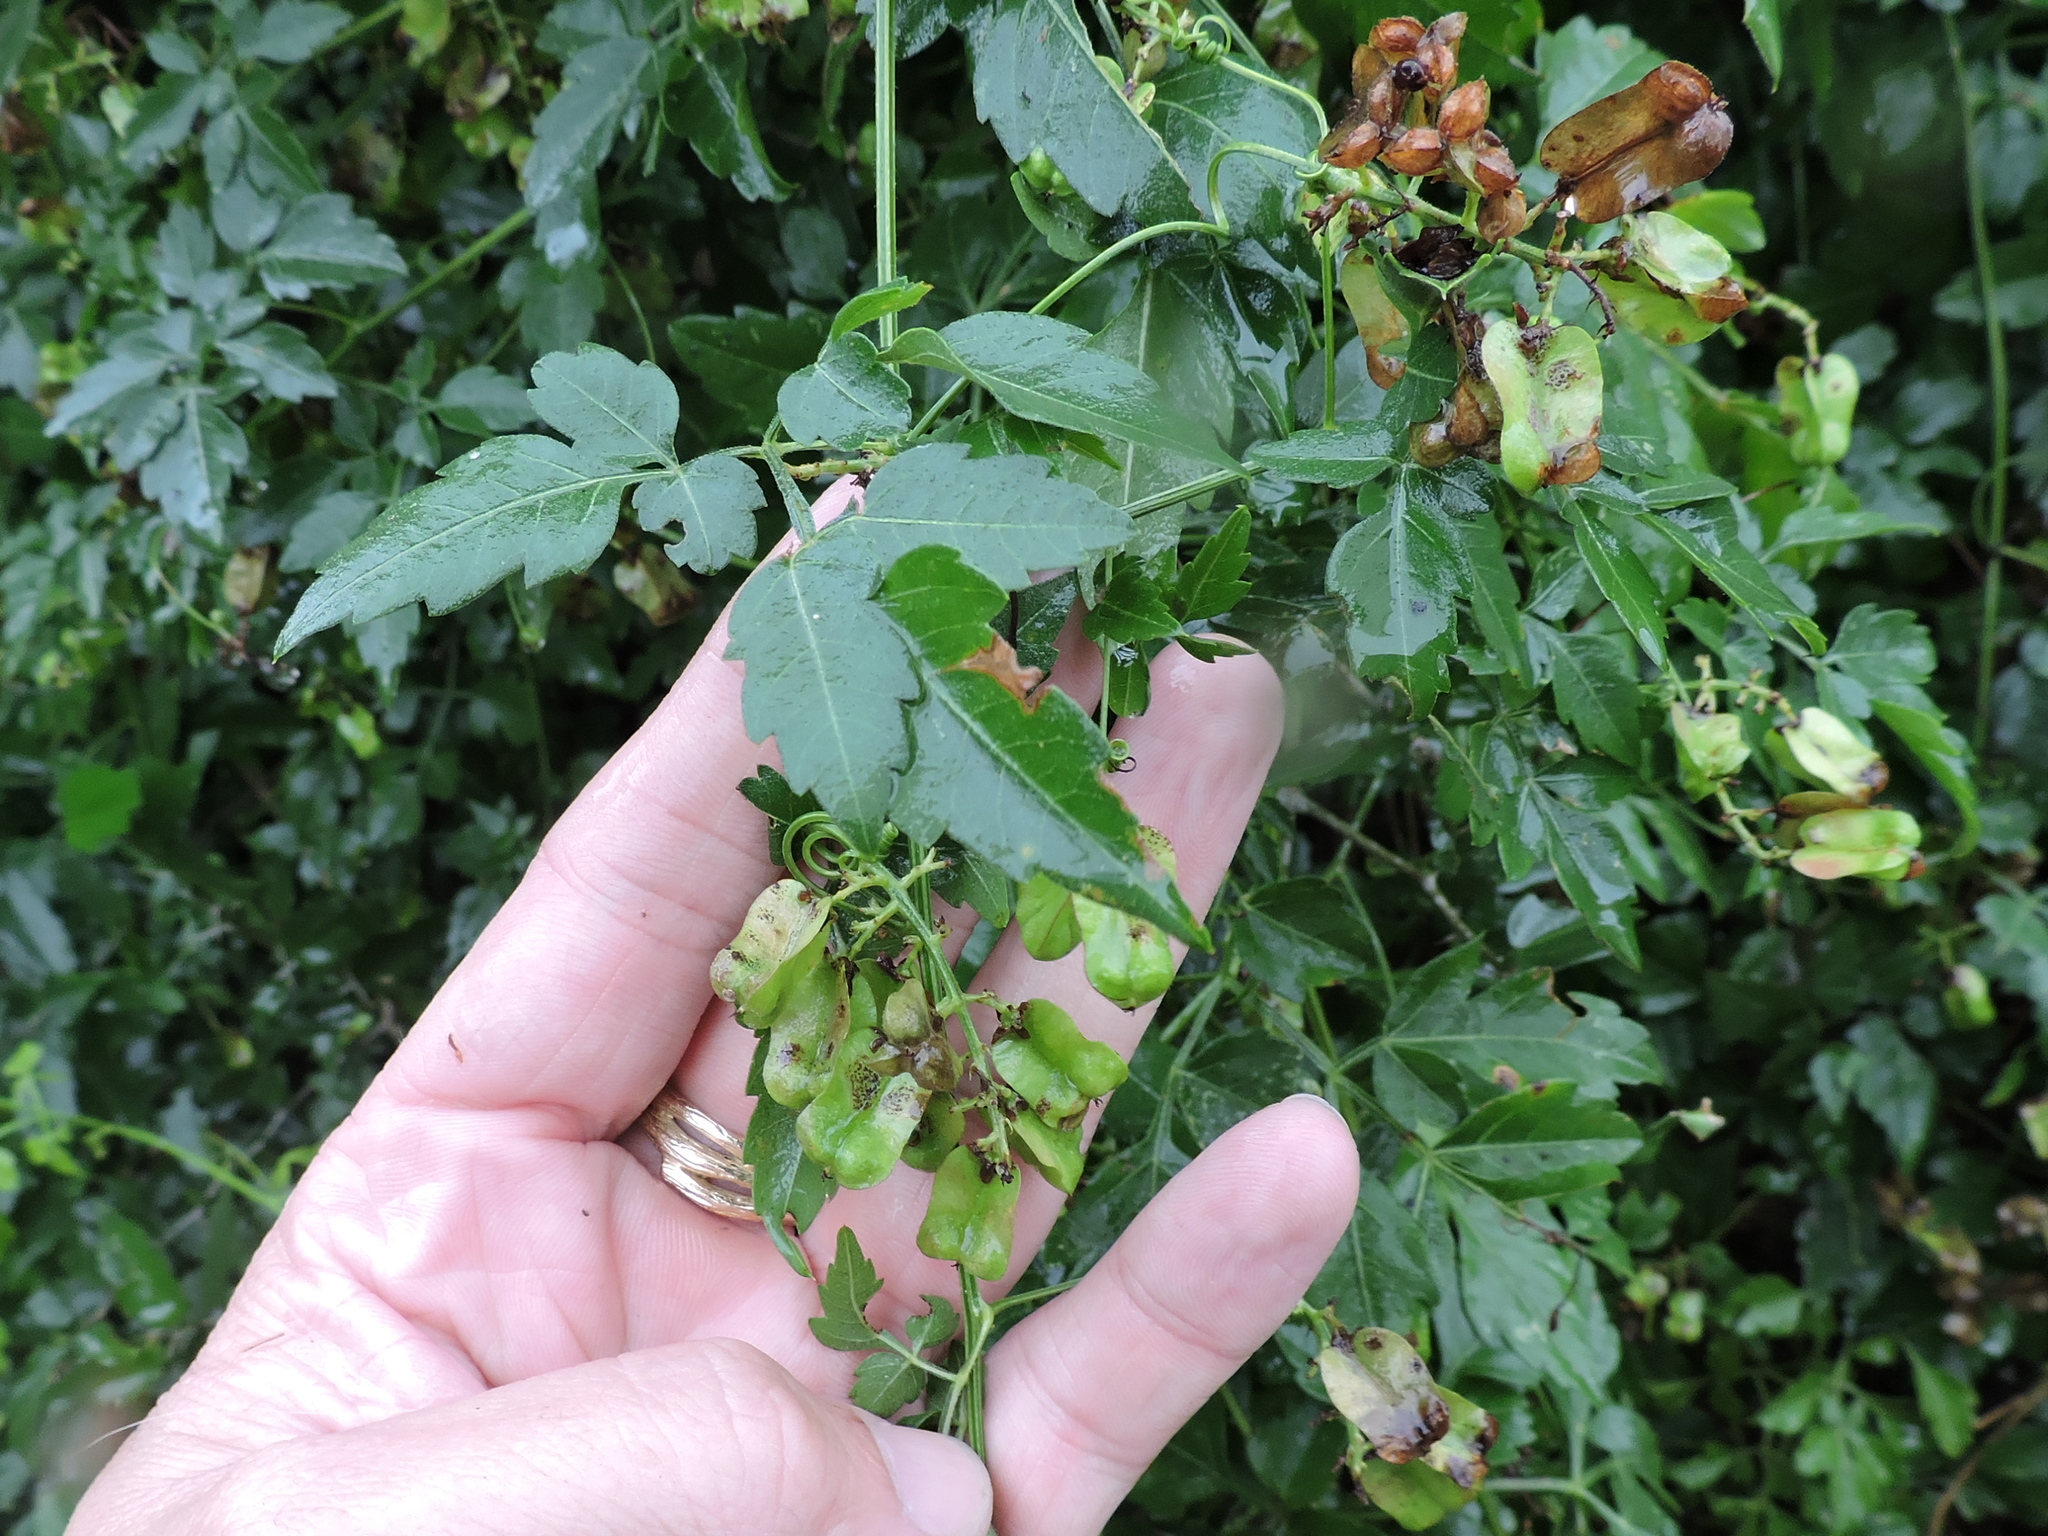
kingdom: Plantae
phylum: Tracheophyta
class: Magnoliopsida
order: Sapindales
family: Sapindaceae
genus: Serjania
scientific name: Serjania brachycarpa
